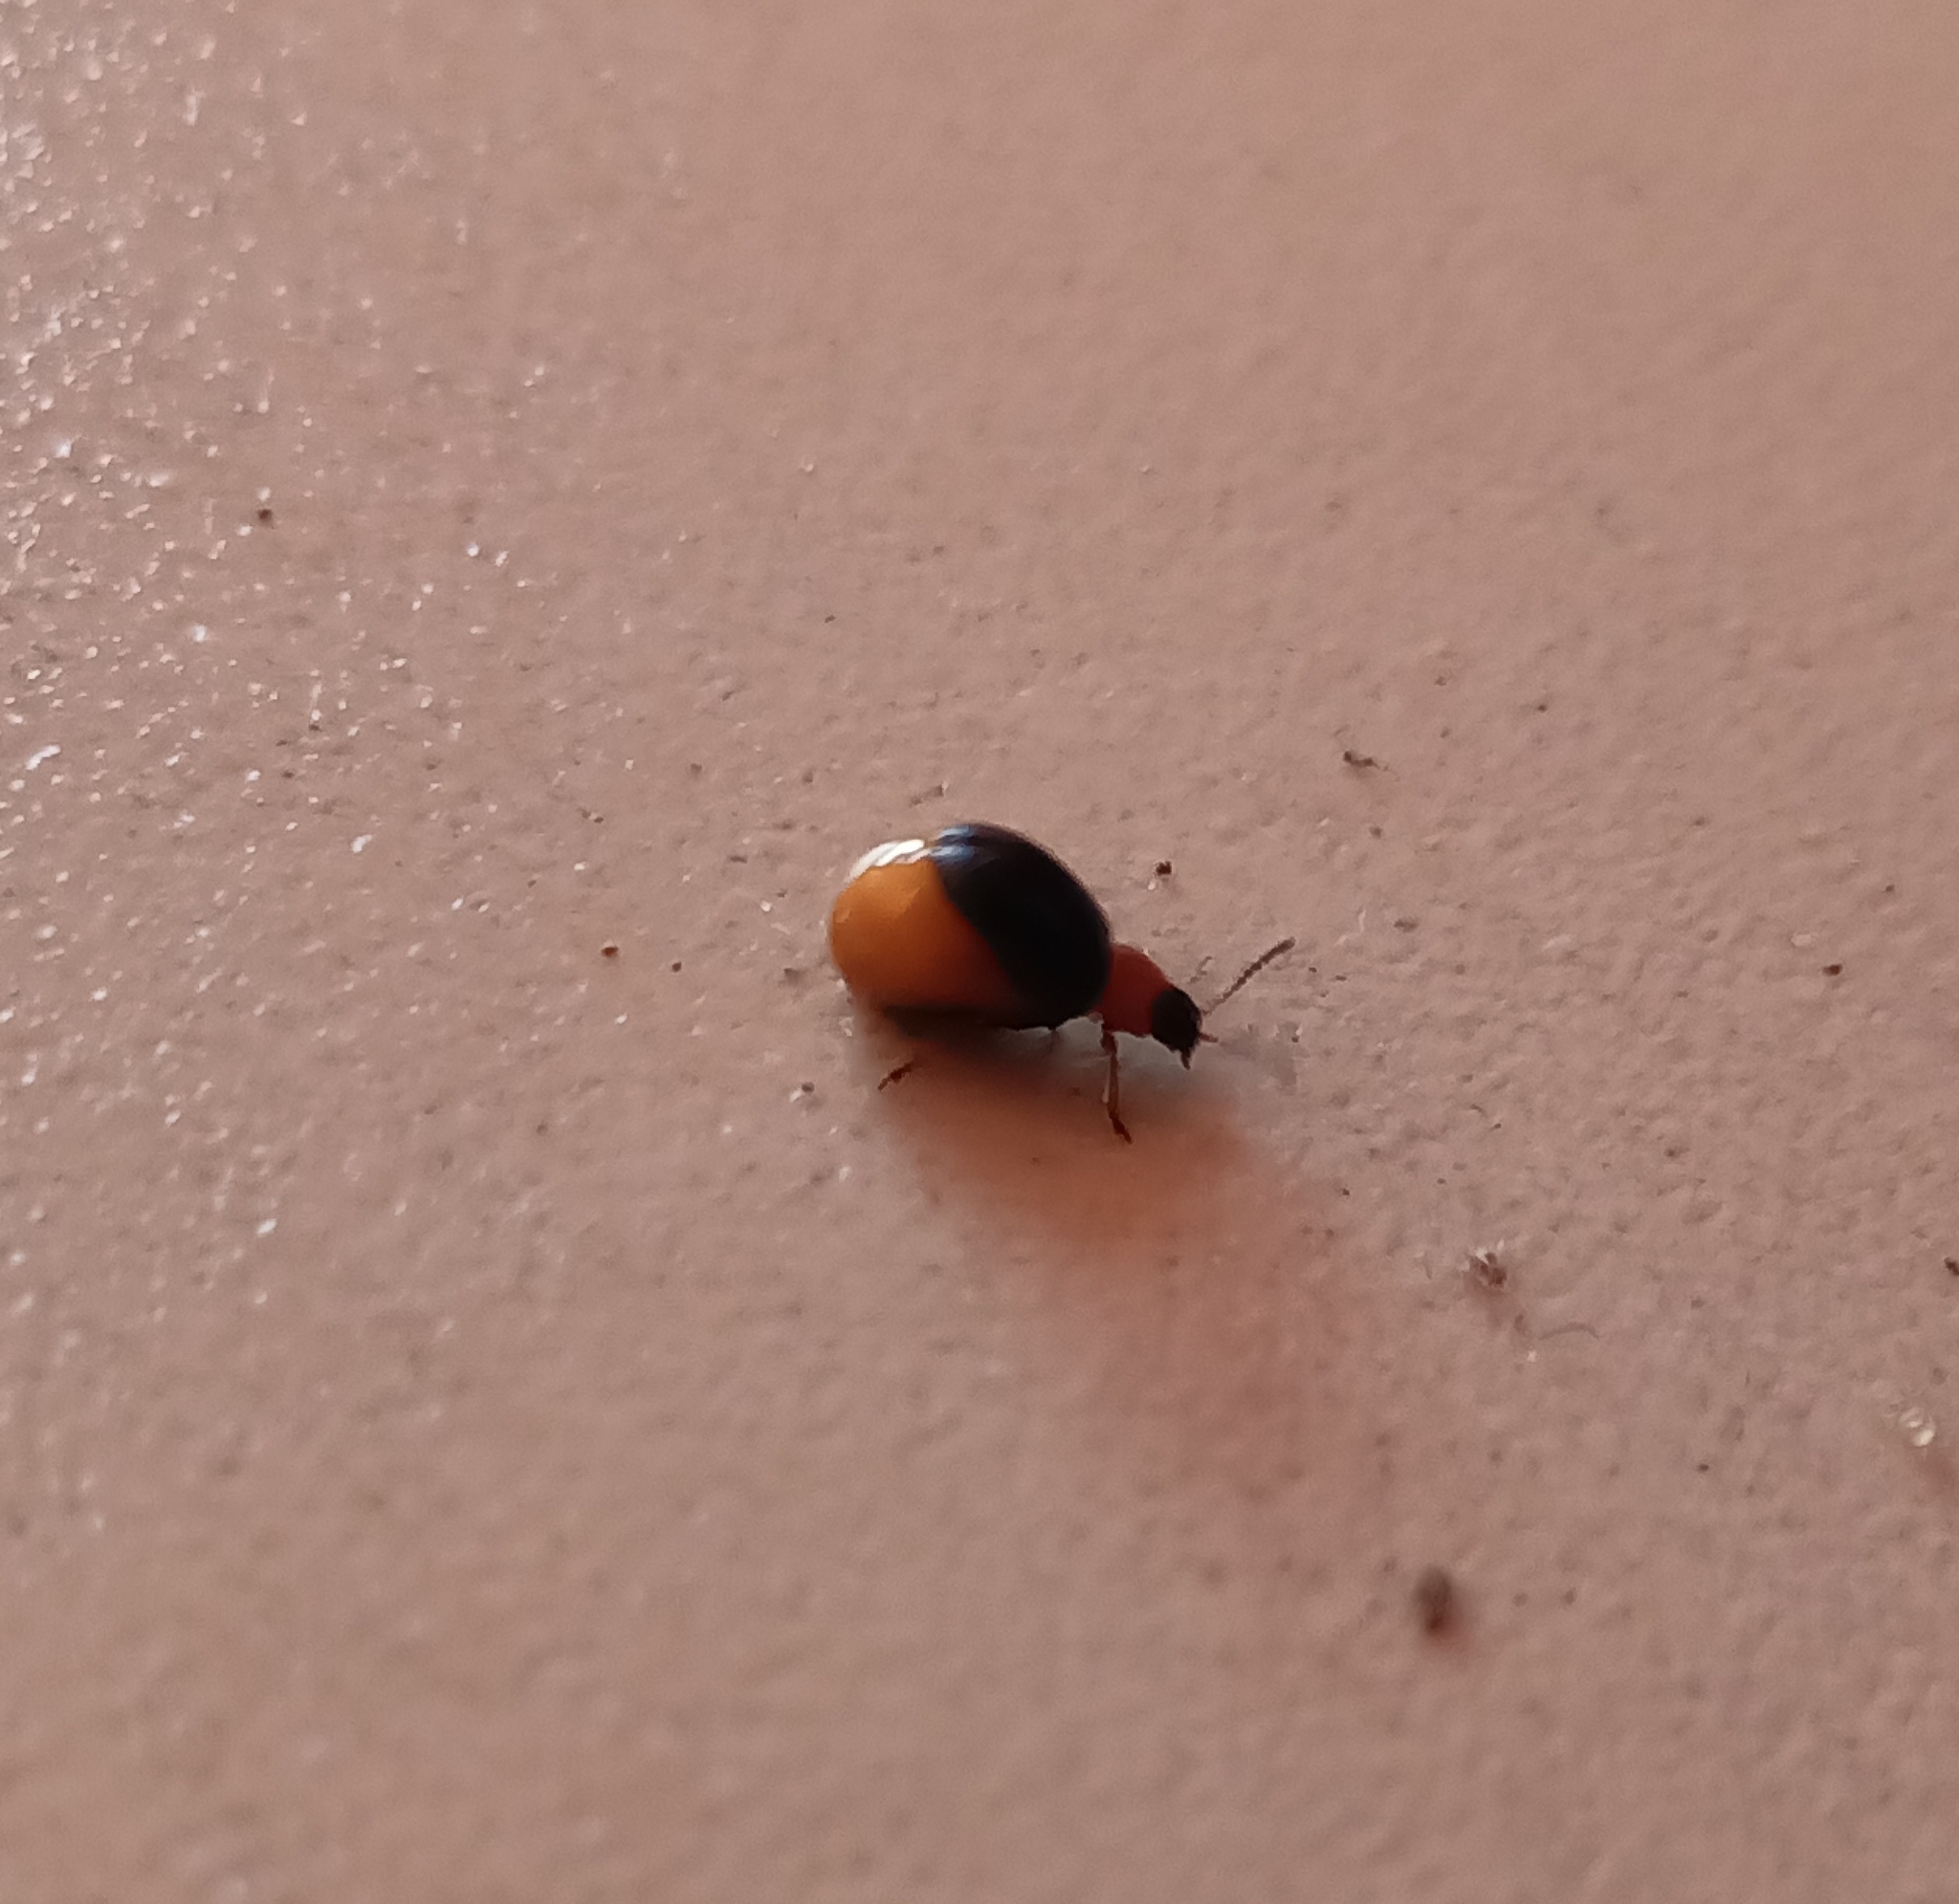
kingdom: Animalia
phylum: Arthropoda
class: Insecta
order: Coleoptera
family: Chrysomelidae
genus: Gastrophysa
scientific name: Gastrophysa polygoni
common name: Knotweed leaf beetle
